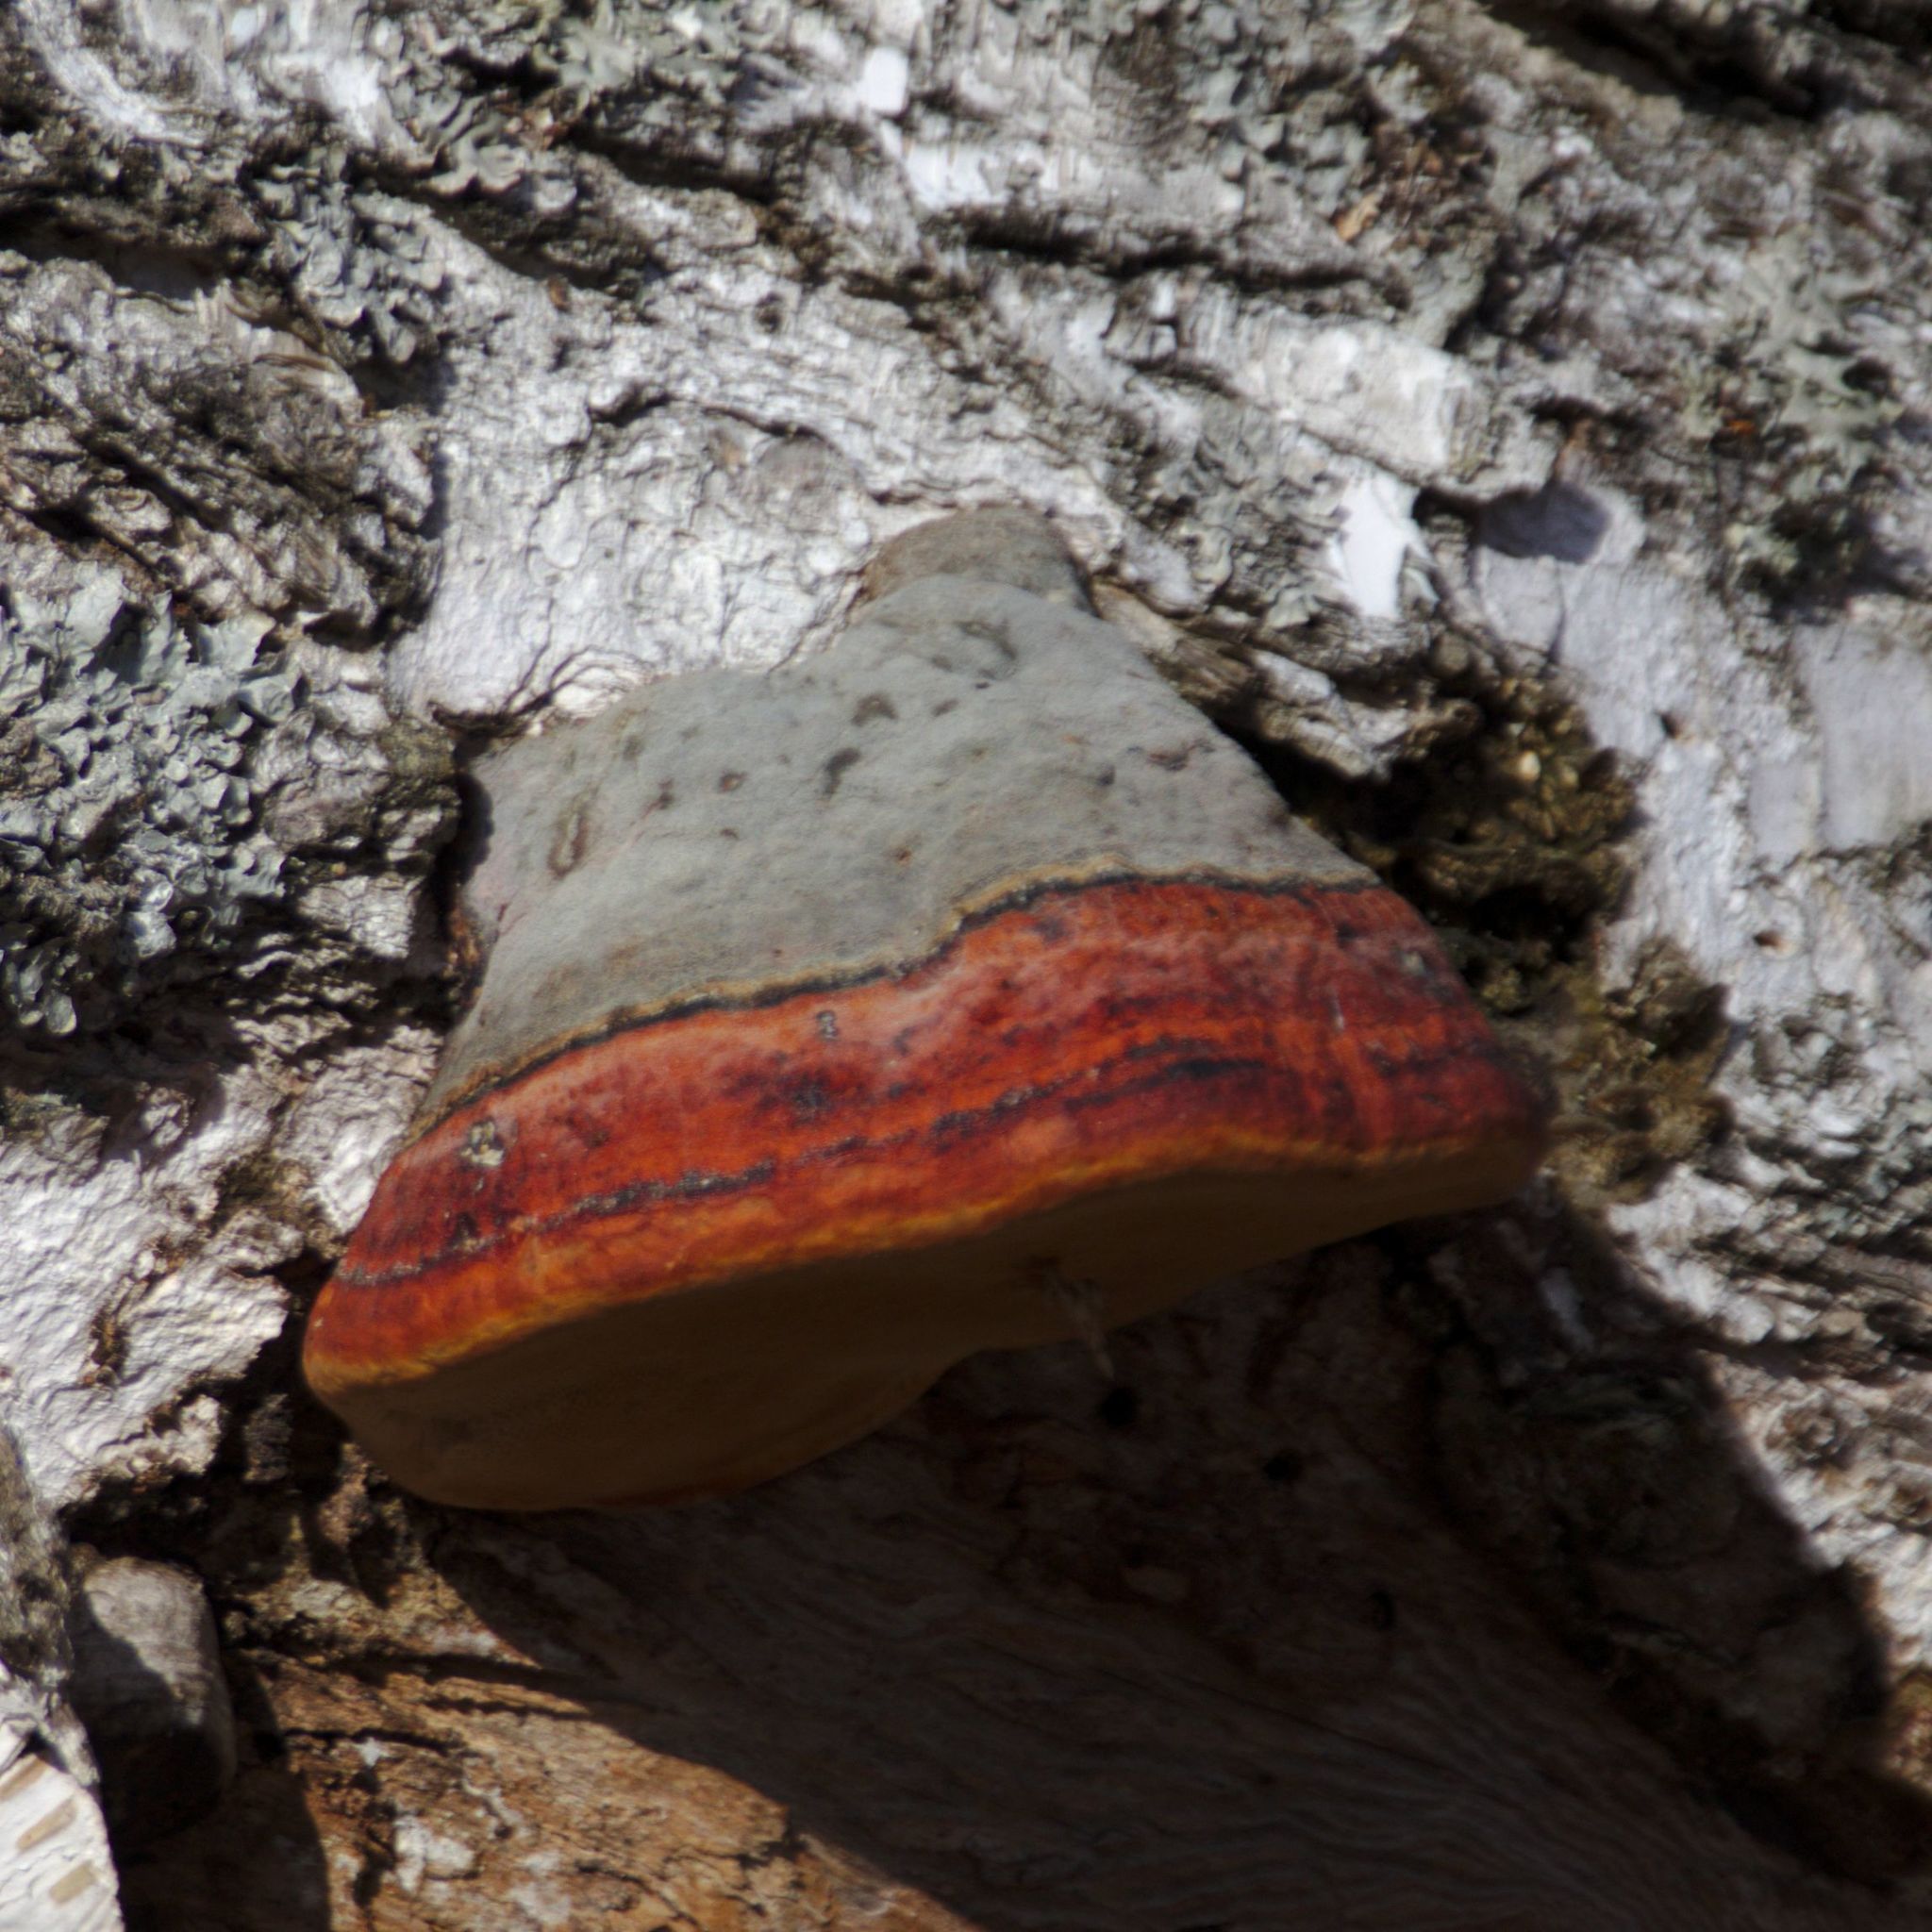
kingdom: Fungi
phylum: Basidiomycota
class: Agaricomycetes
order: Polyporales
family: Fomitopsidaceae
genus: Fomitopsis
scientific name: Fomitopsis pinicola
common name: Red-belted bracket
